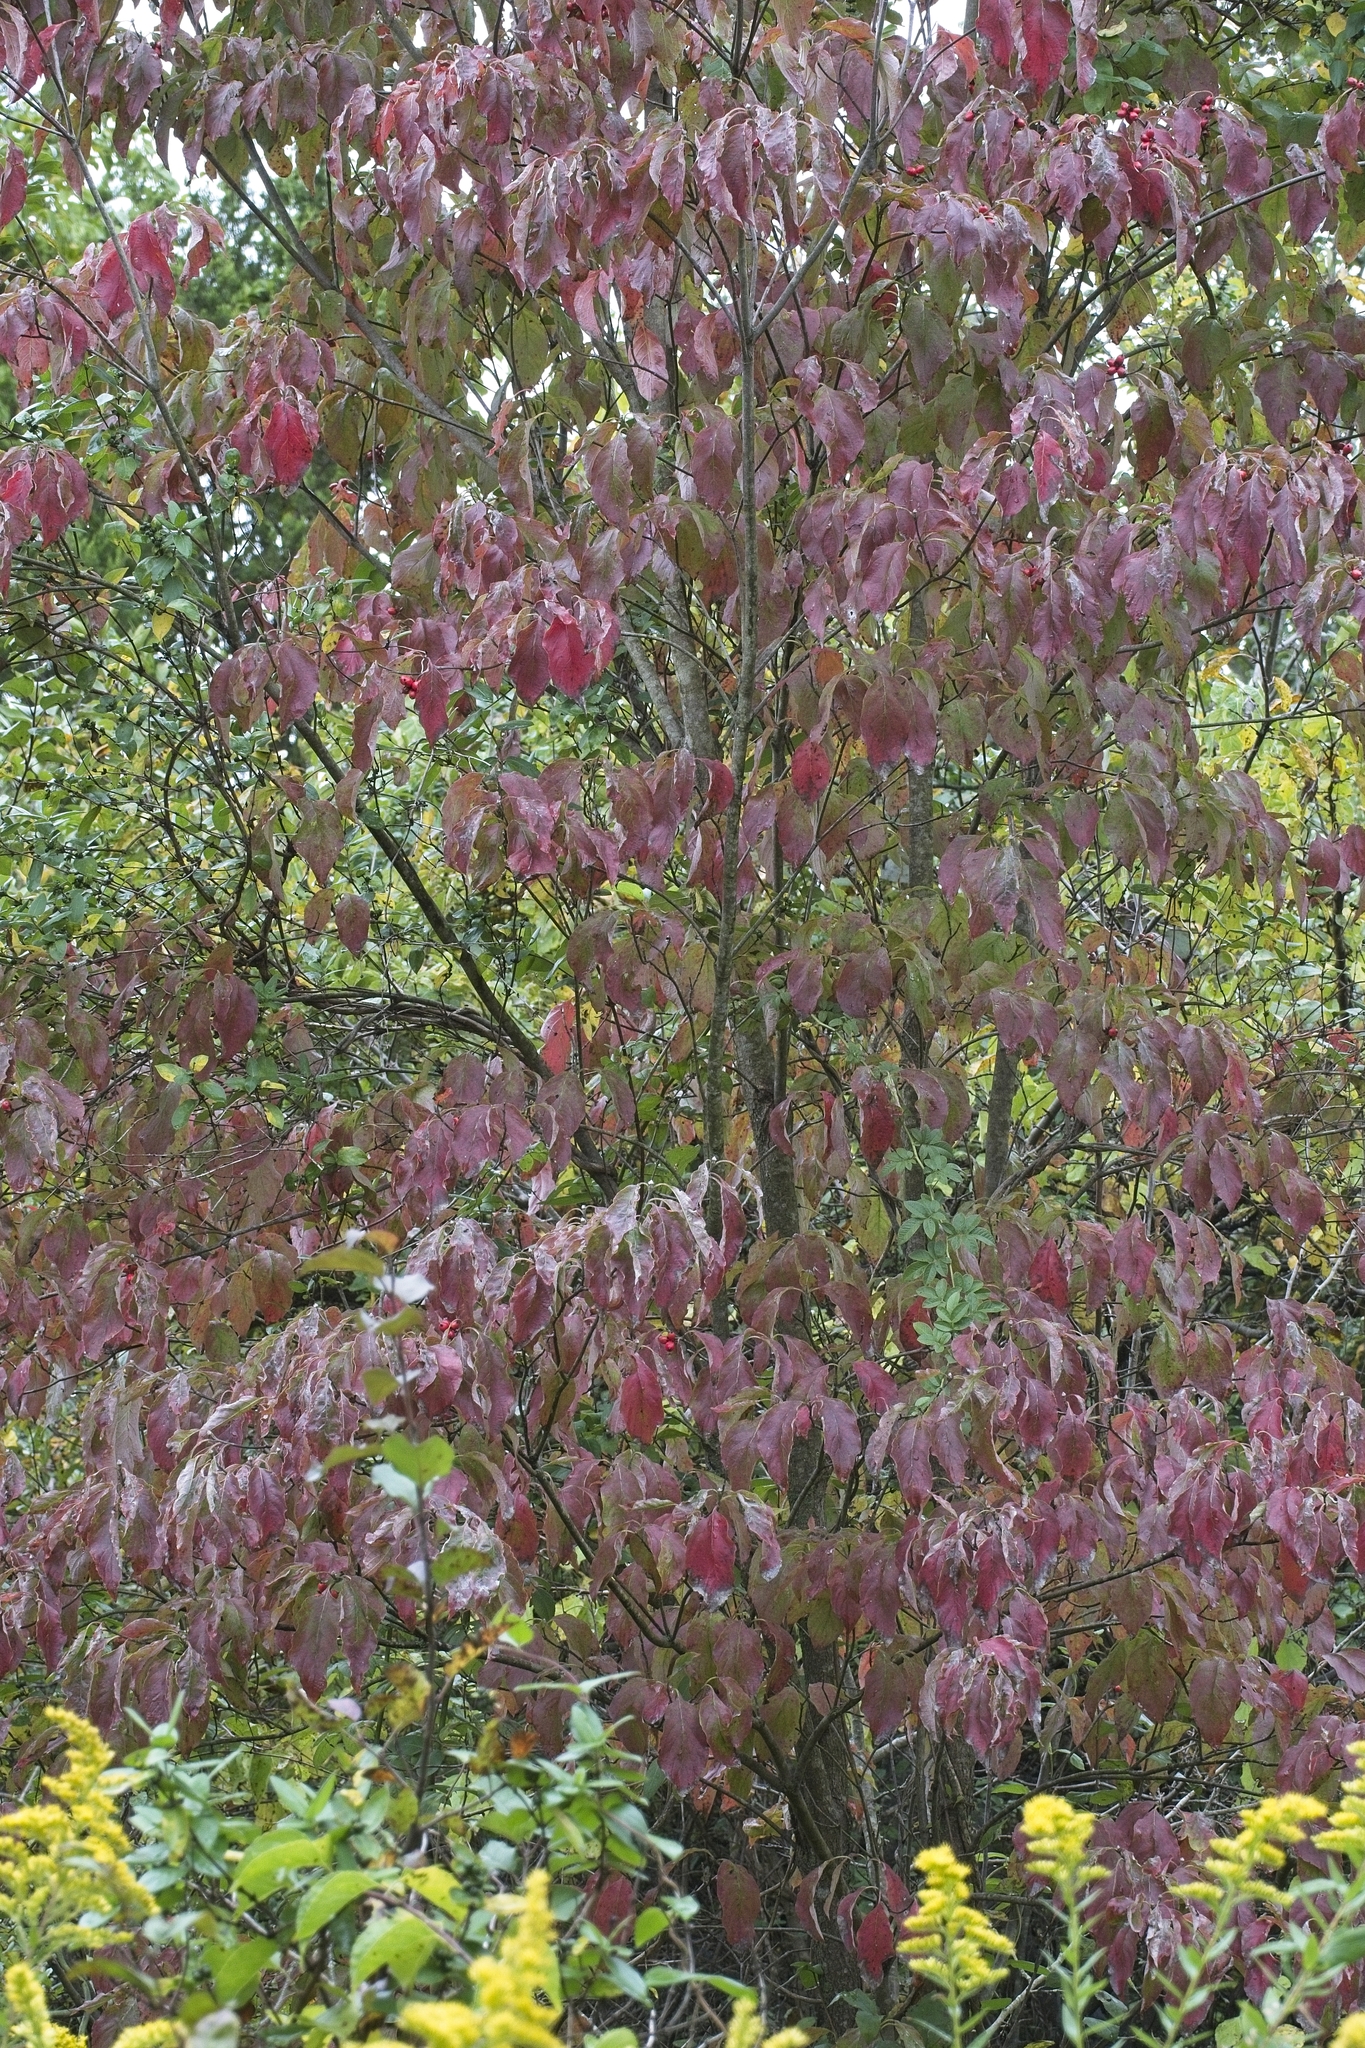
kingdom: Plantae
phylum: Tracheophyta
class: Magnoliopsida
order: Cornales
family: Cornaceae
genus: Cornus
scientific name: Cornus florida
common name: Flowering dogwood
